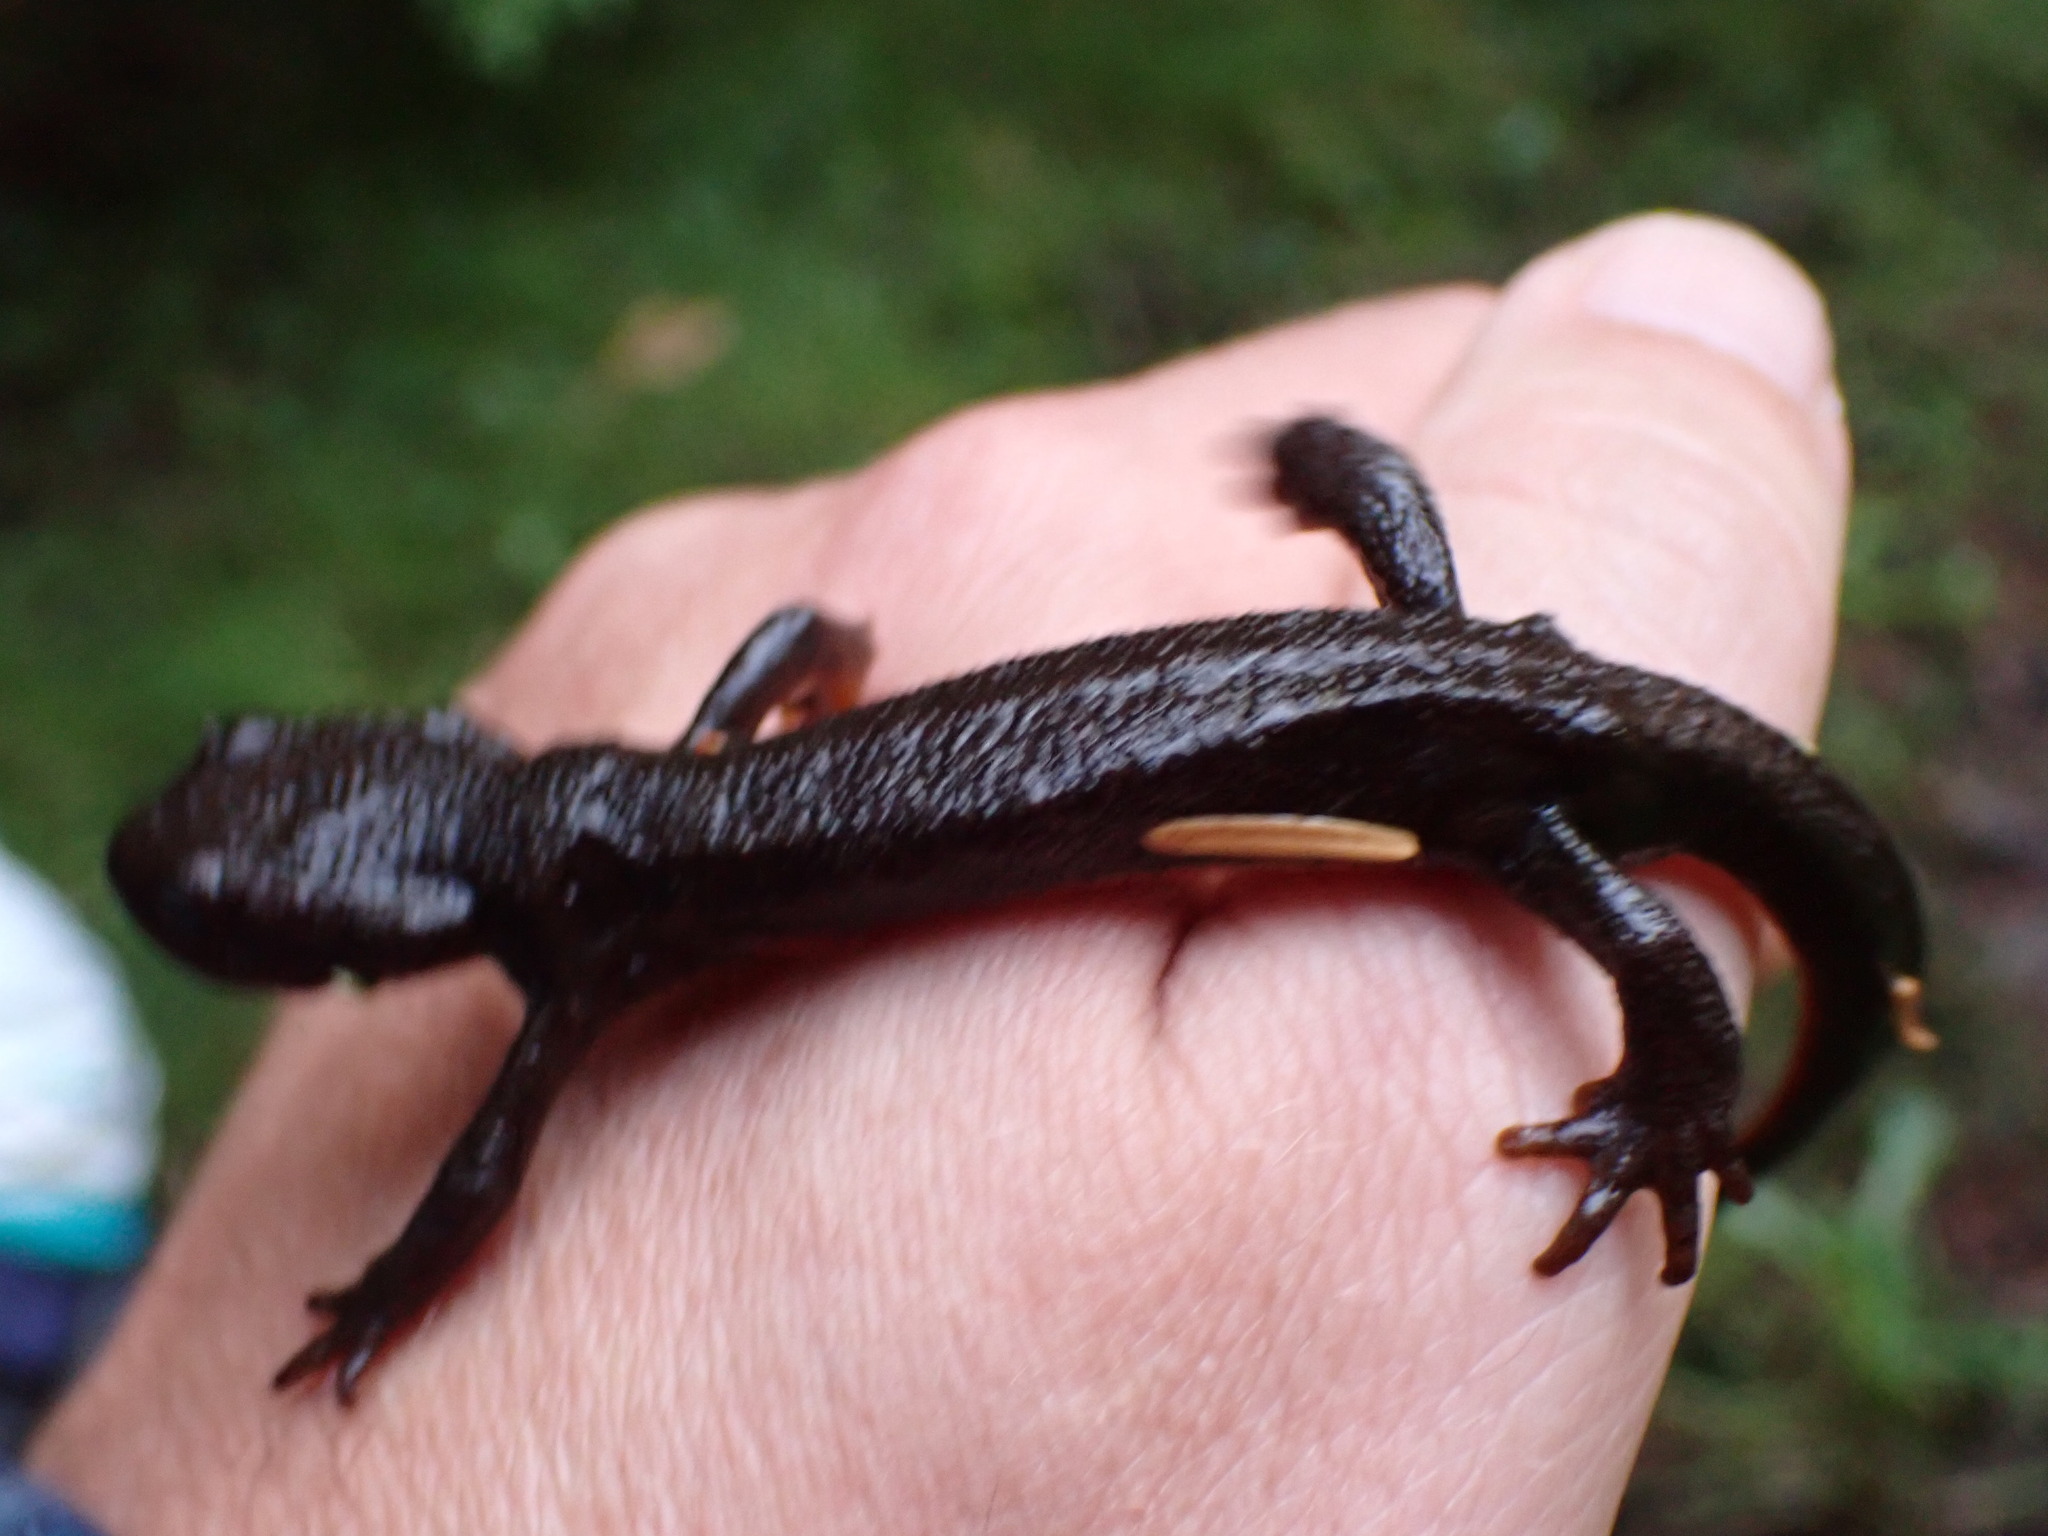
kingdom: Animalia
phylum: Chordata
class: Amphibia
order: Caudata
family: Salamandridae
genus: Taricha
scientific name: Taricha granulosa
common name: Roughskin newt
